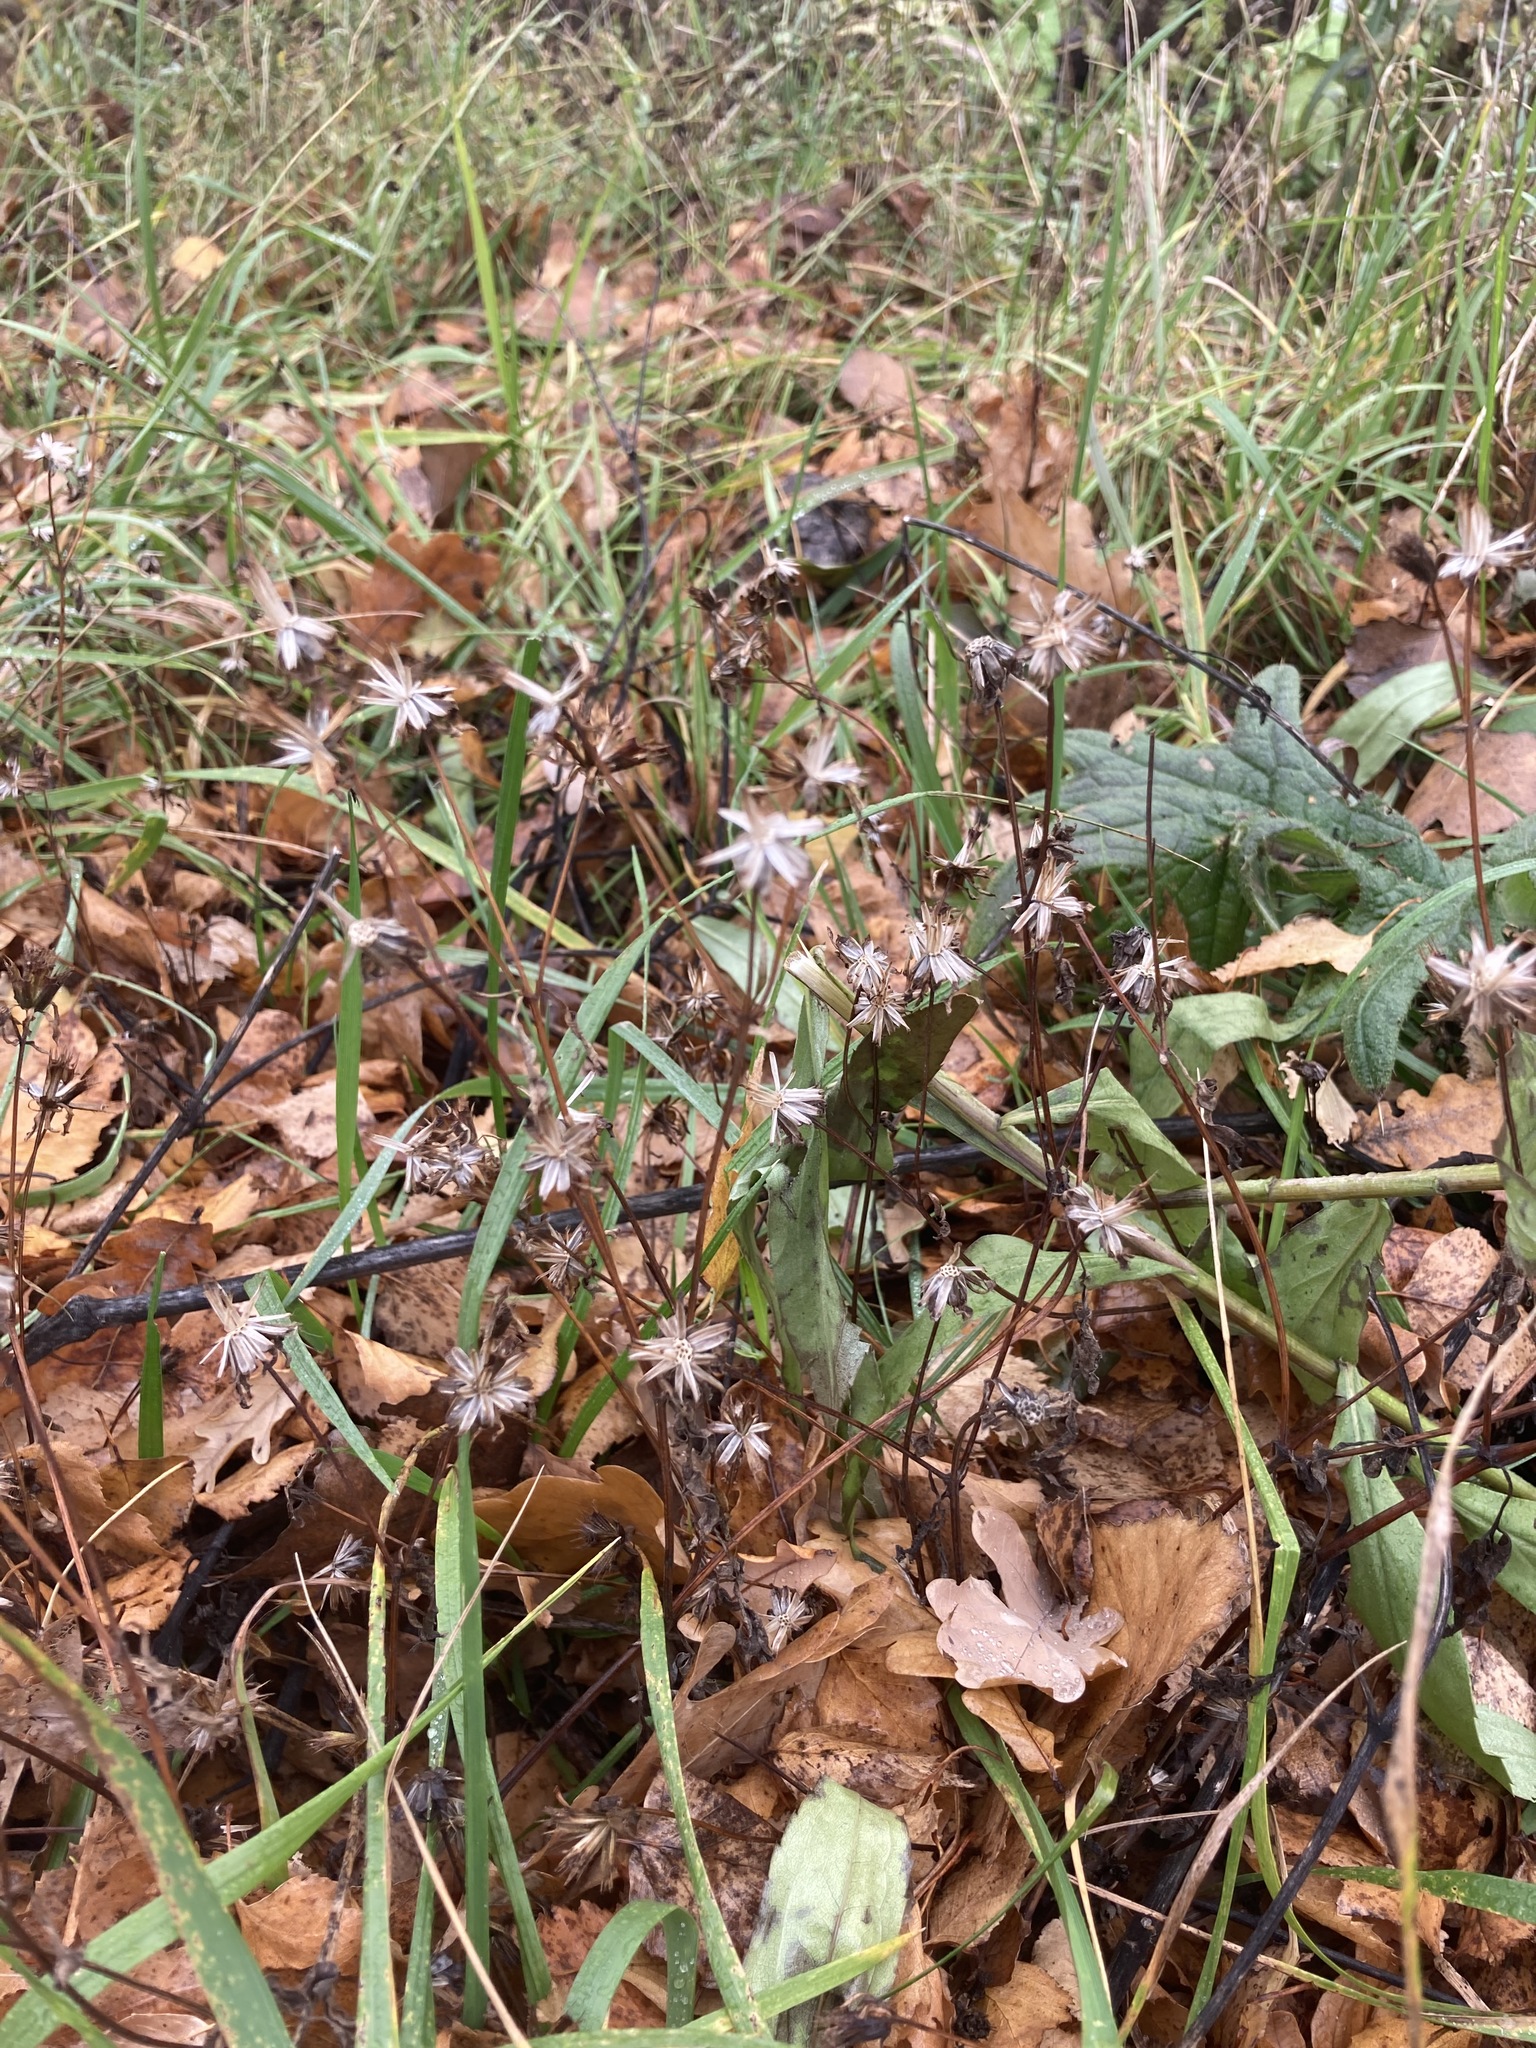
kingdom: Plantae
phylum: Tracheophyta
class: Magnoliopsida
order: Asterales
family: Asteraceae
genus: Bidens
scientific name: Bidens frondosa
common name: Beggarticks
